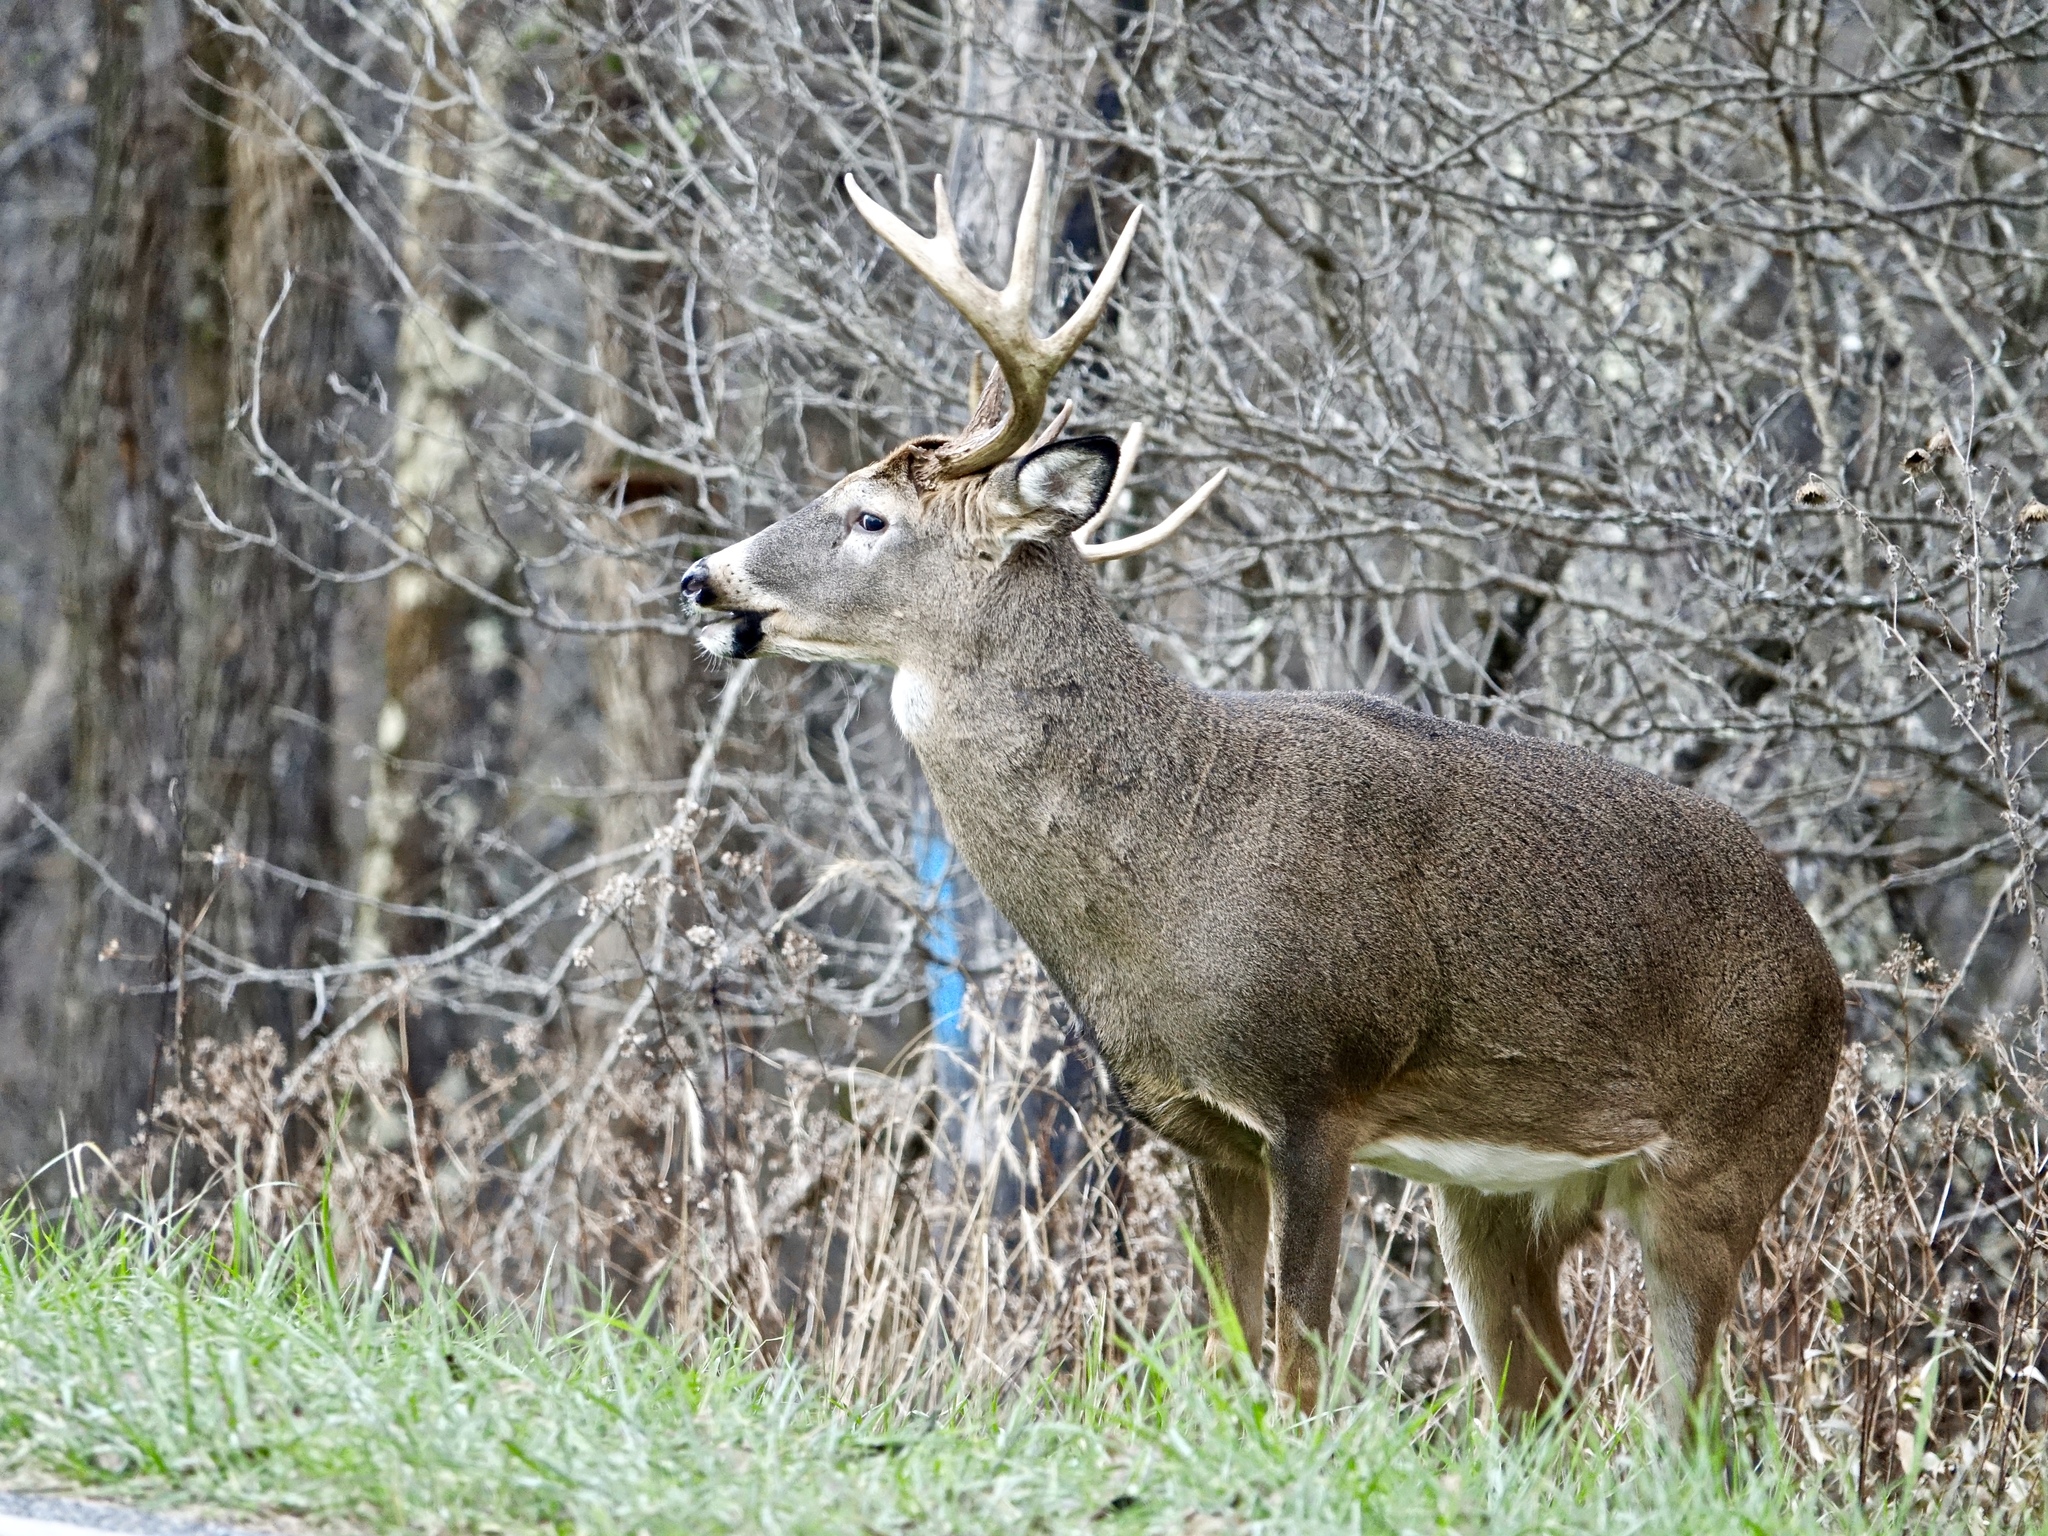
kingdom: Animalia
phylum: Chordata
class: Mammalia
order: Artiodactyla
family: Cervidae
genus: Odocoileus
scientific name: Odocoileus virginianus
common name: White-tailed deer
